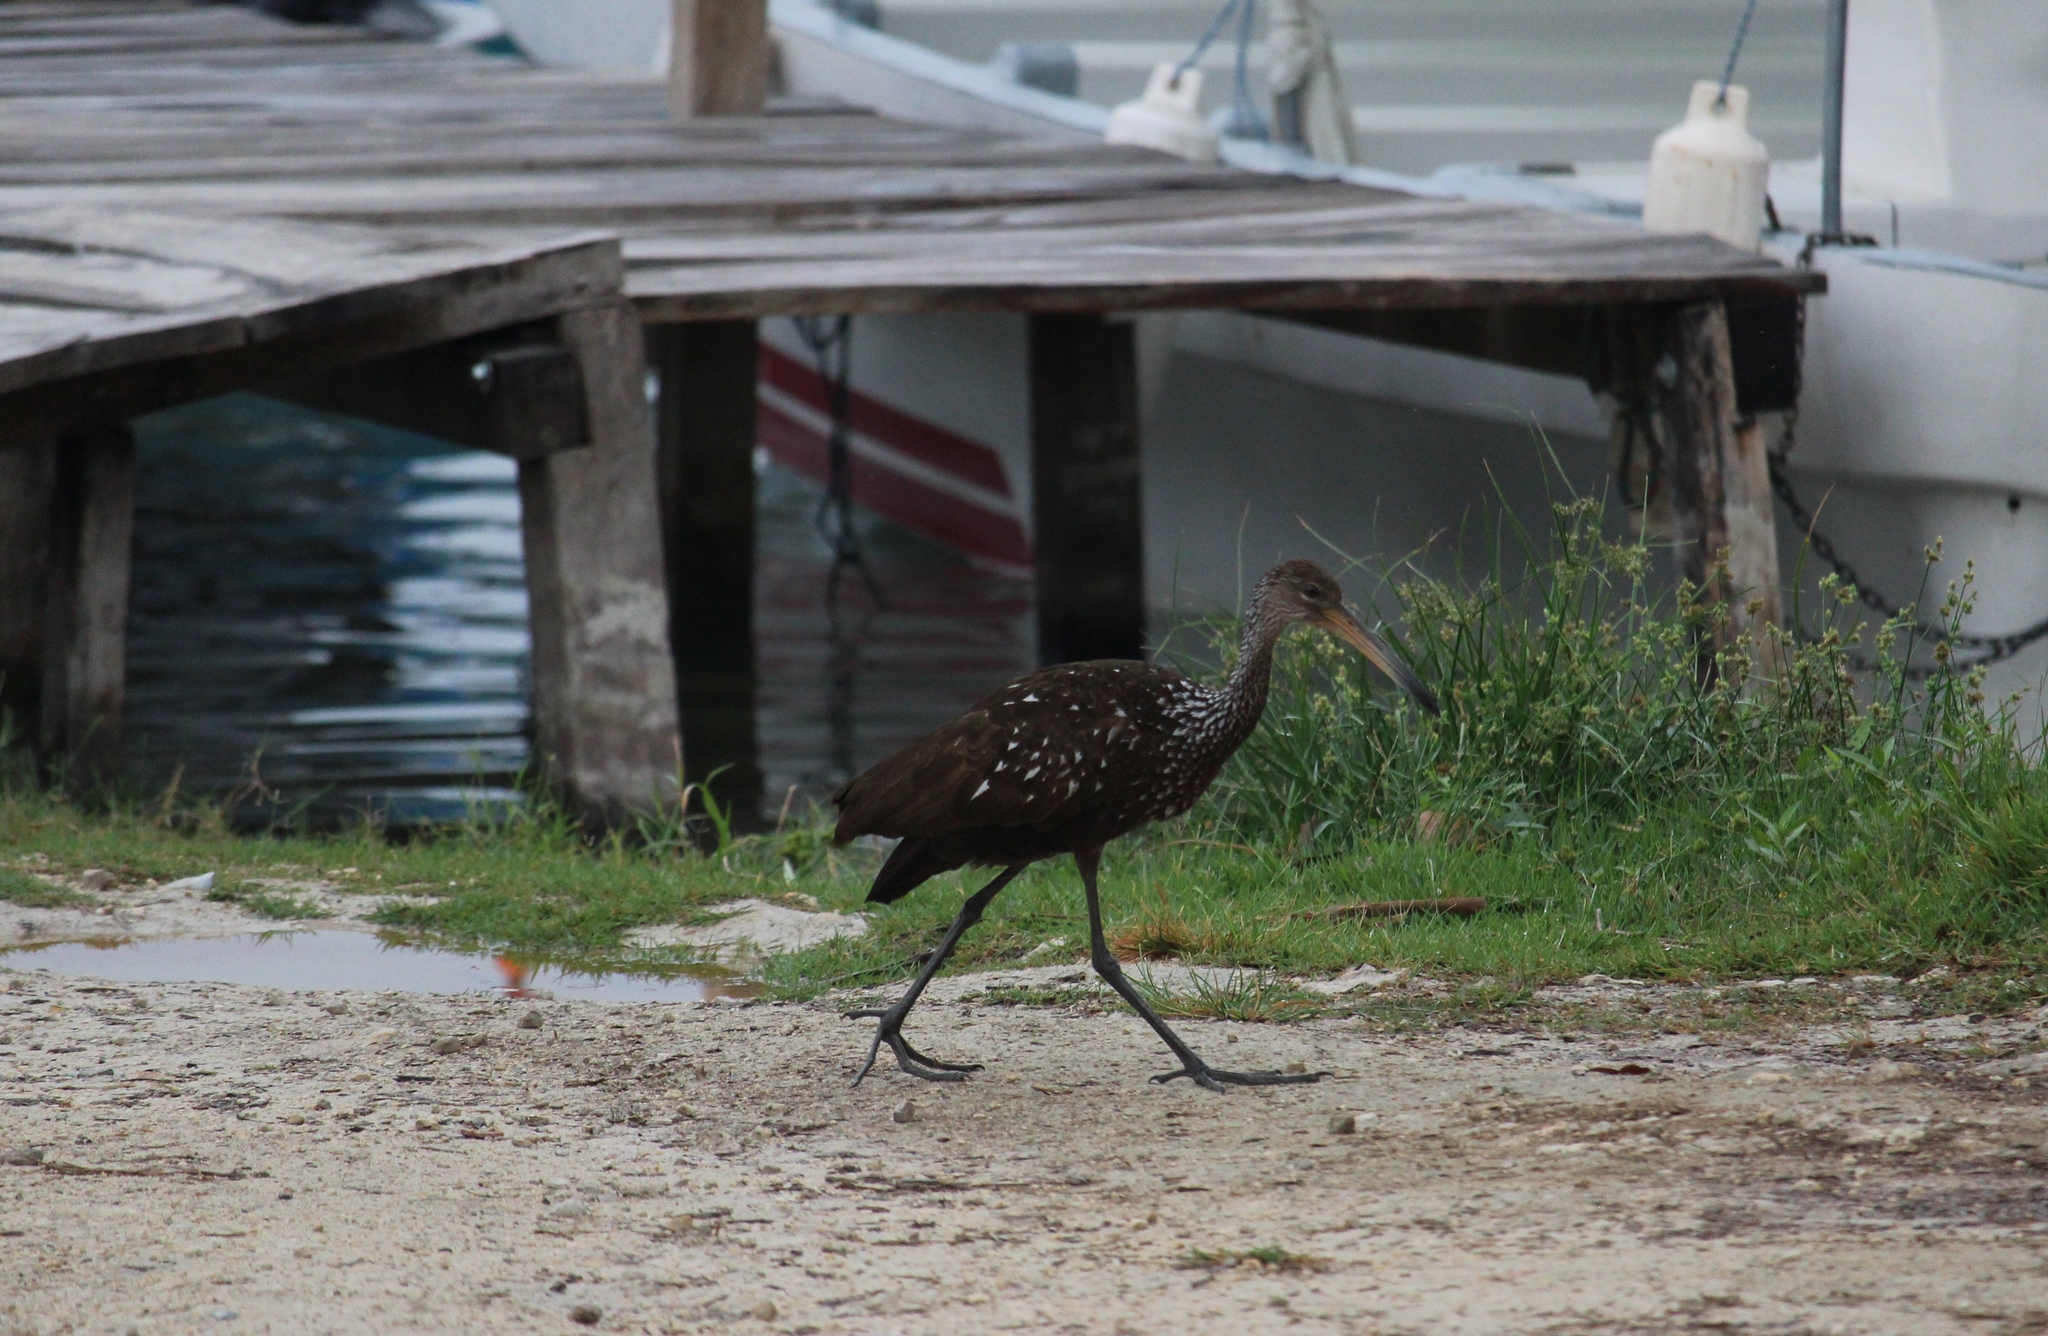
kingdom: Animalia
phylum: Chordata
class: Aves
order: Gruiformes
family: Aramidae
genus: Aramus
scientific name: Aramus guarauna
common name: Limpkin
